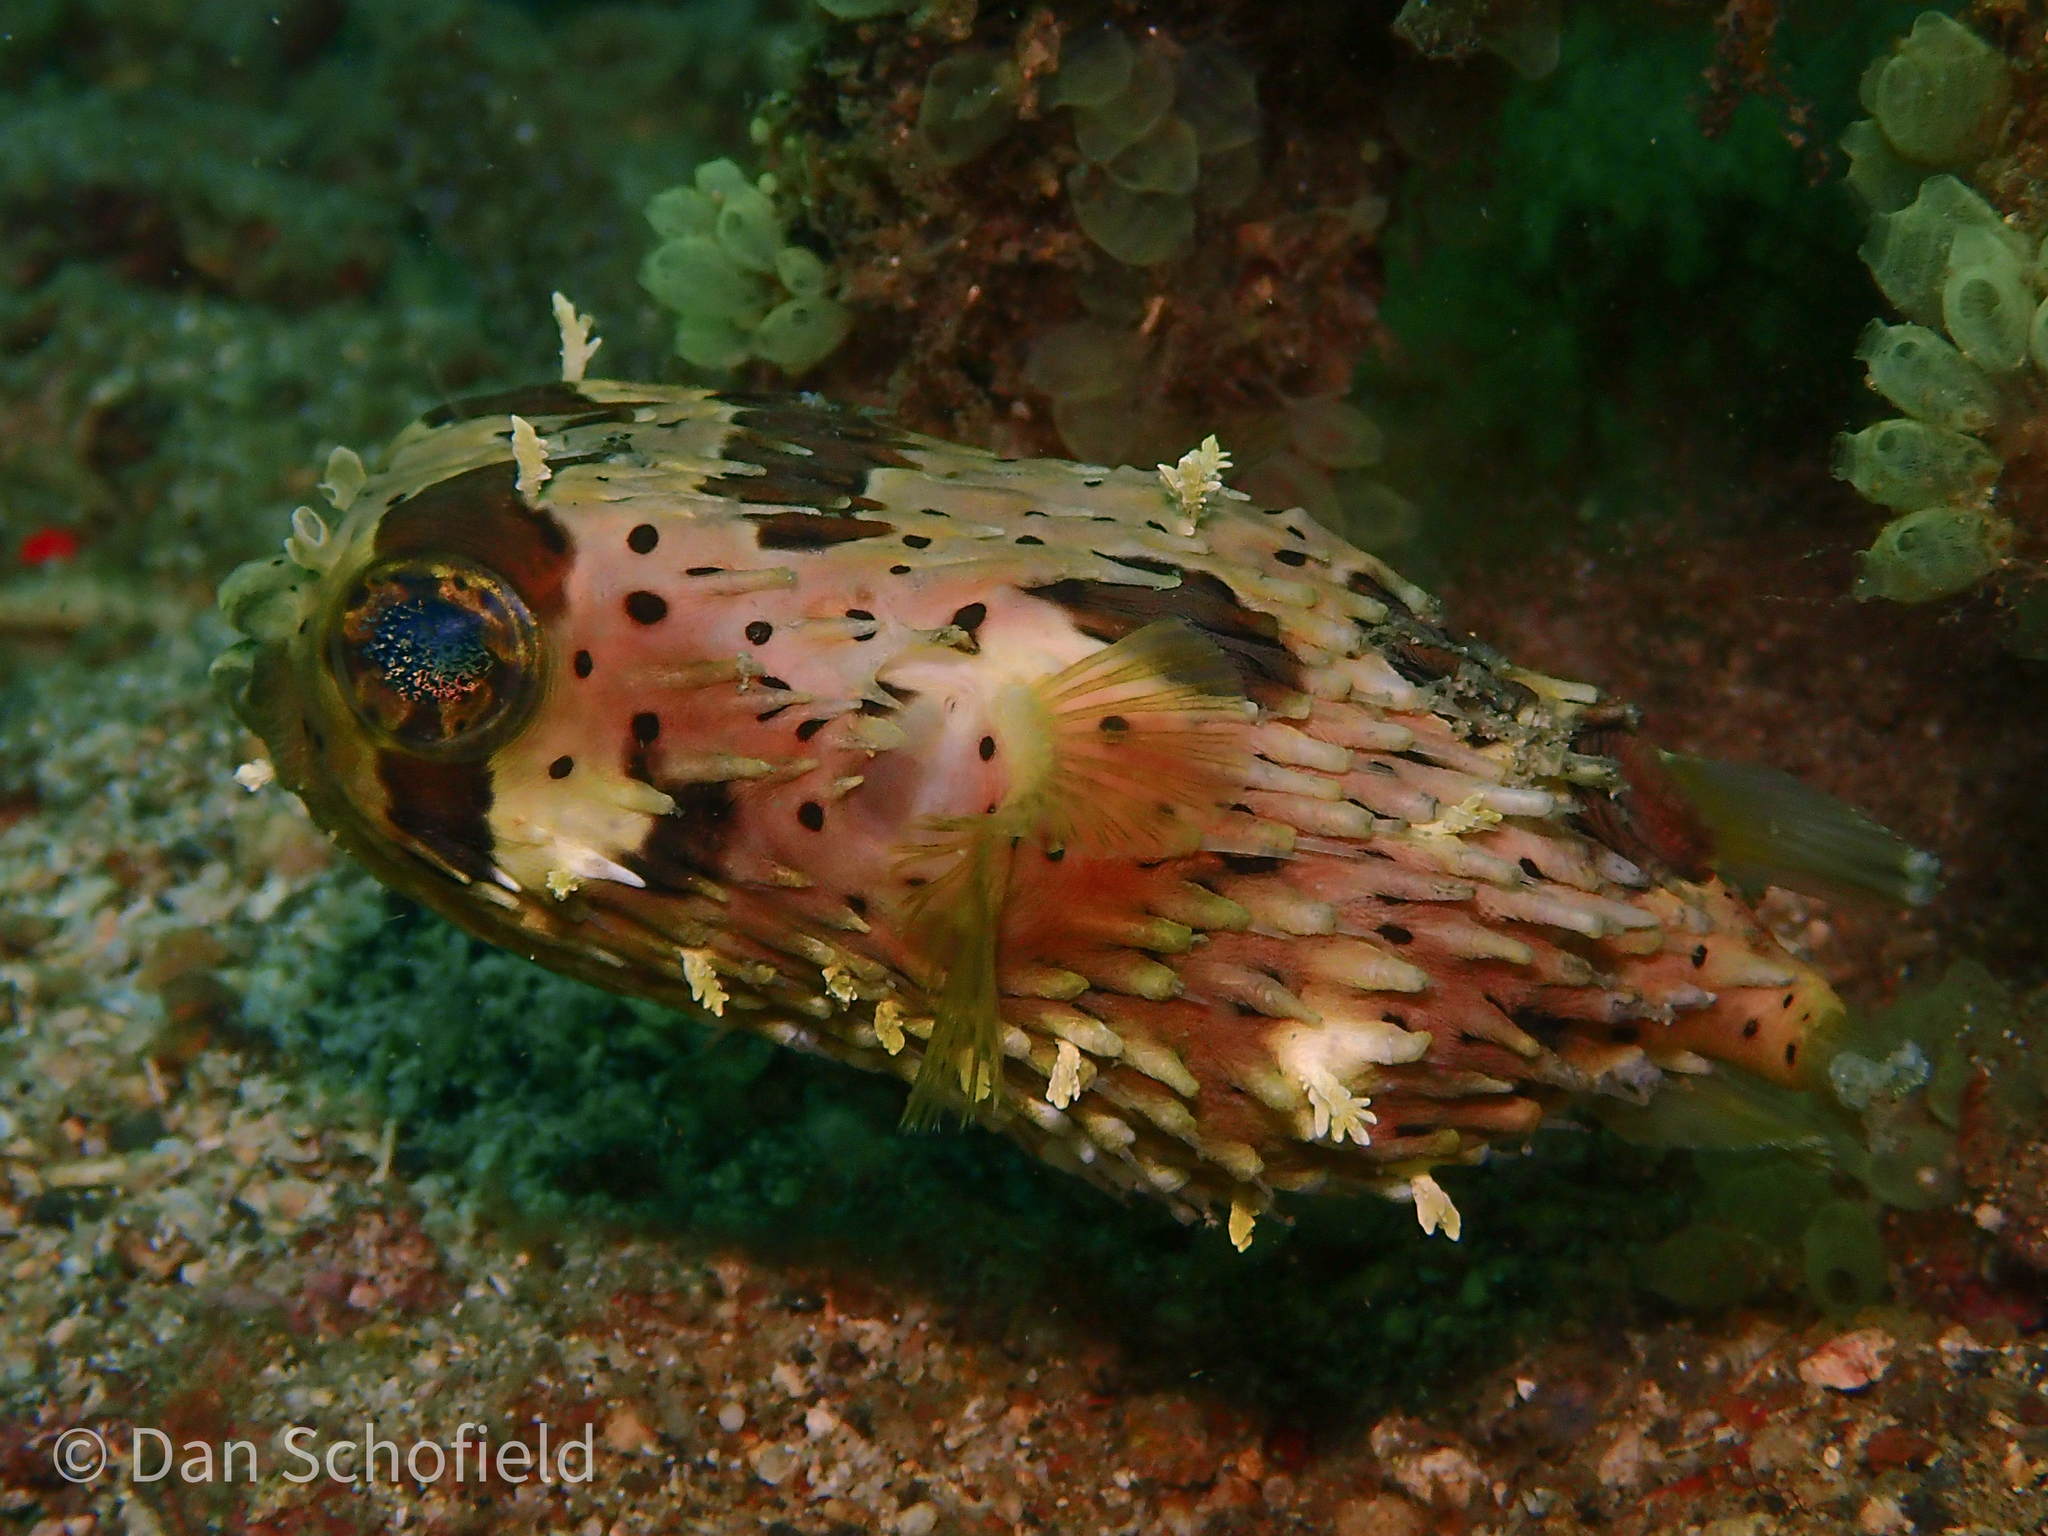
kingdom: Animalia
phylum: Chordata
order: Tetraodontiformes
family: Diodontidae
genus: Diodon
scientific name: Diodon holocanthus
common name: Balloonfish
